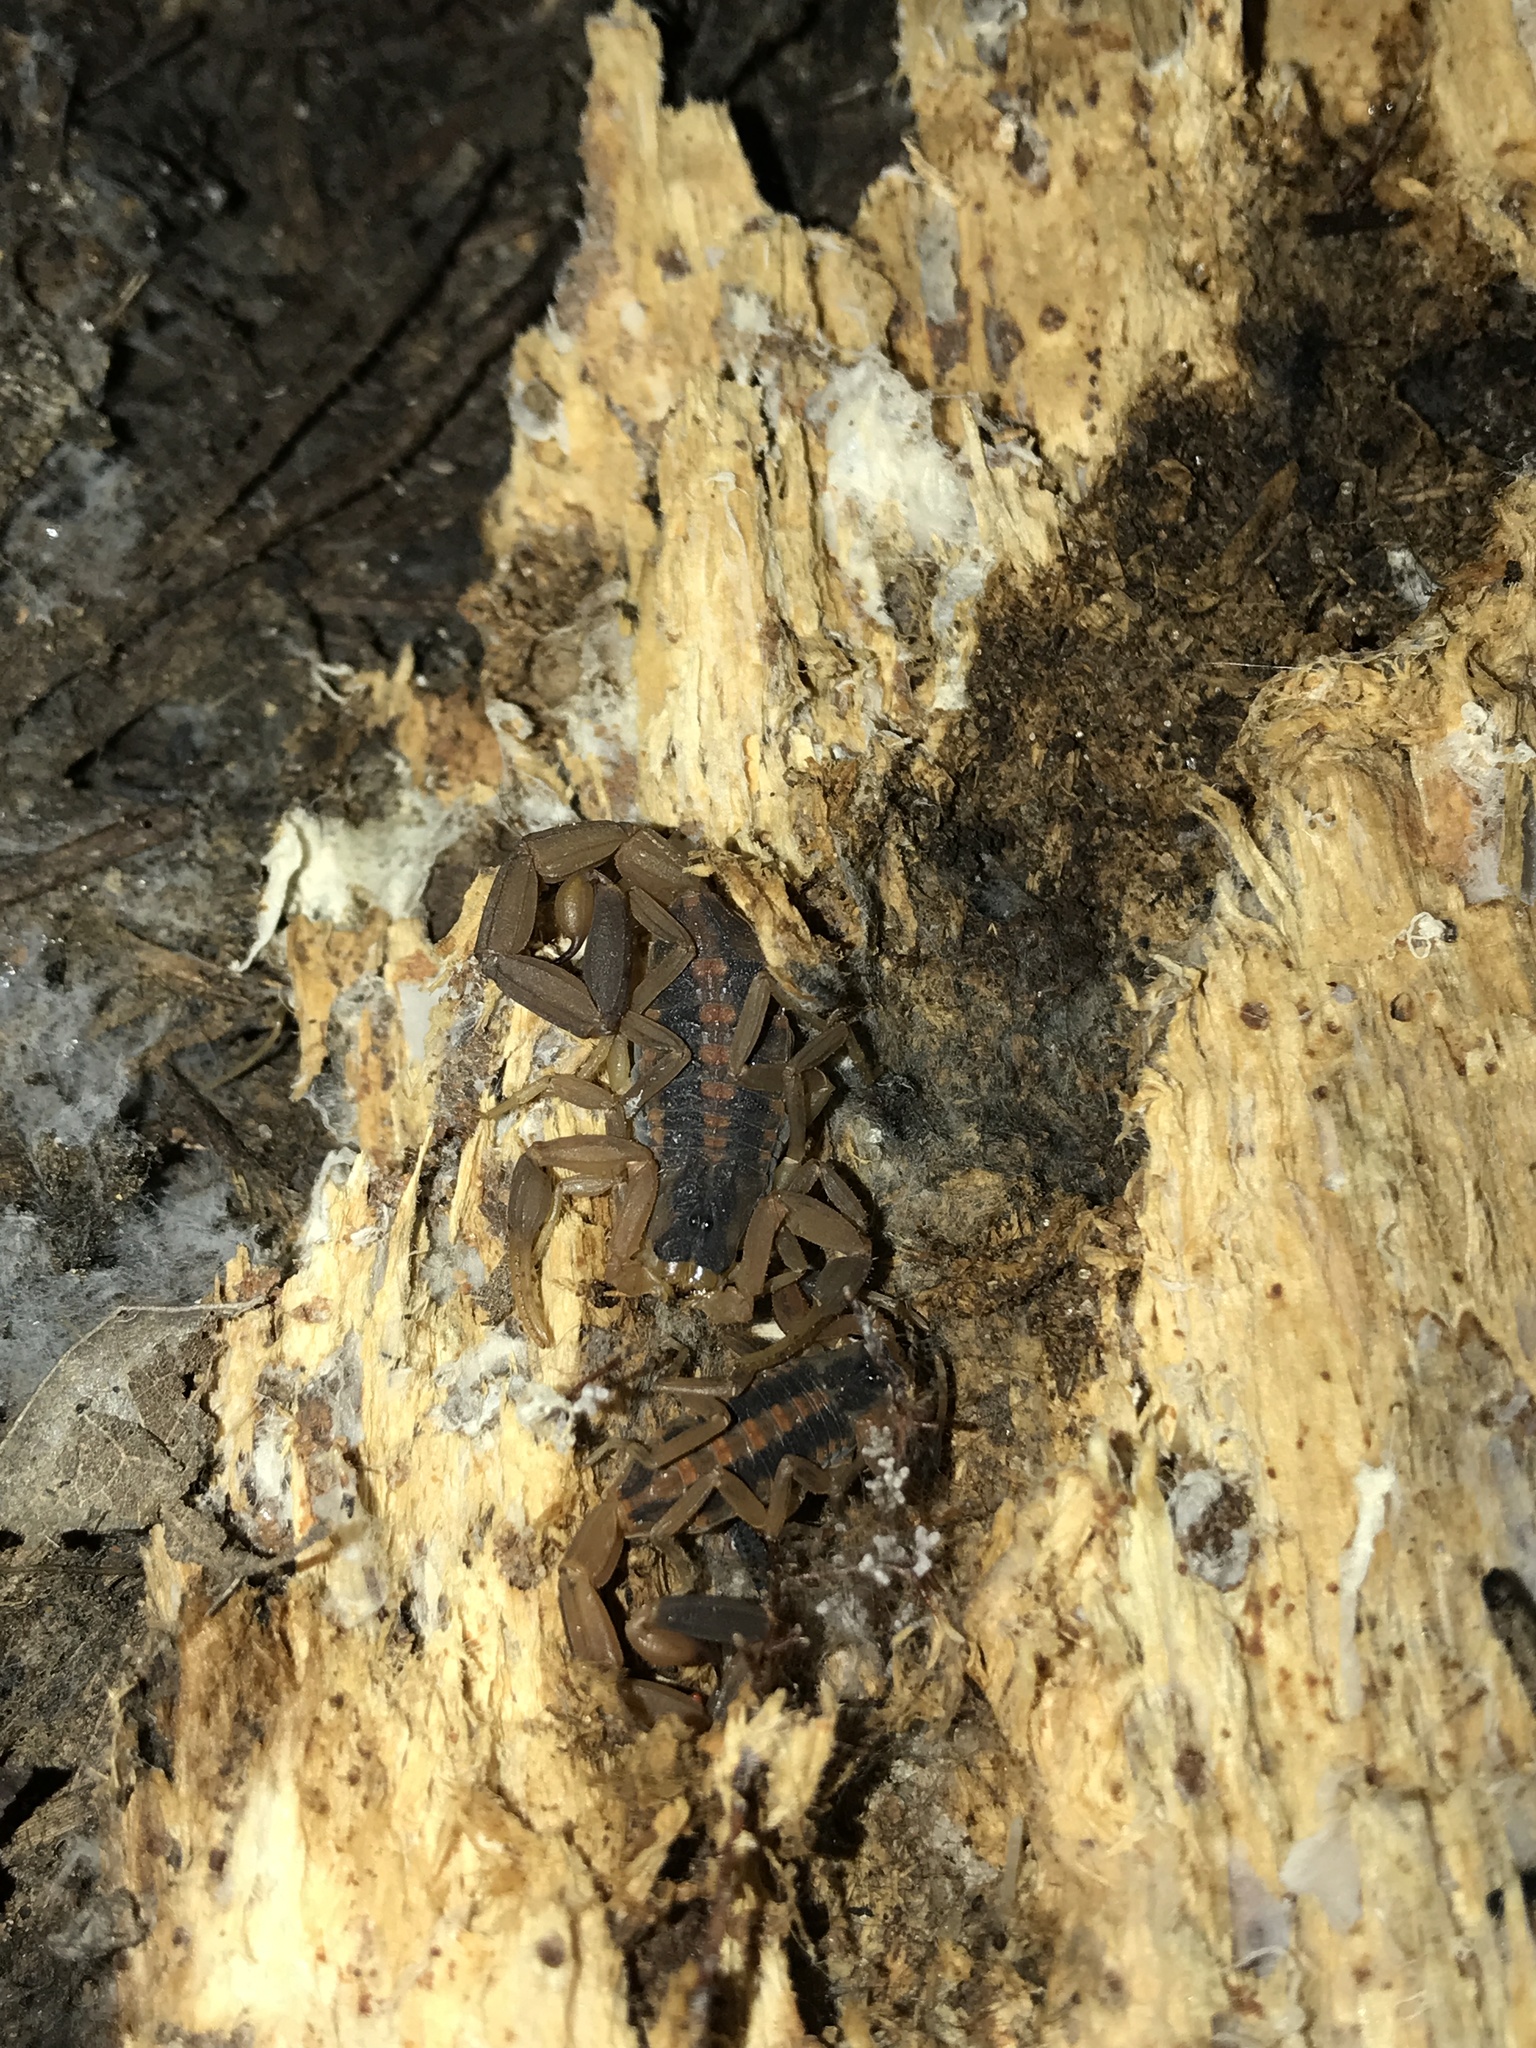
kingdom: Animalia
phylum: Arthropoda
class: Arachnida
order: Scorpiones
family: Buthidae
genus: Centruroides
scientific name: Centruroides vittatus
